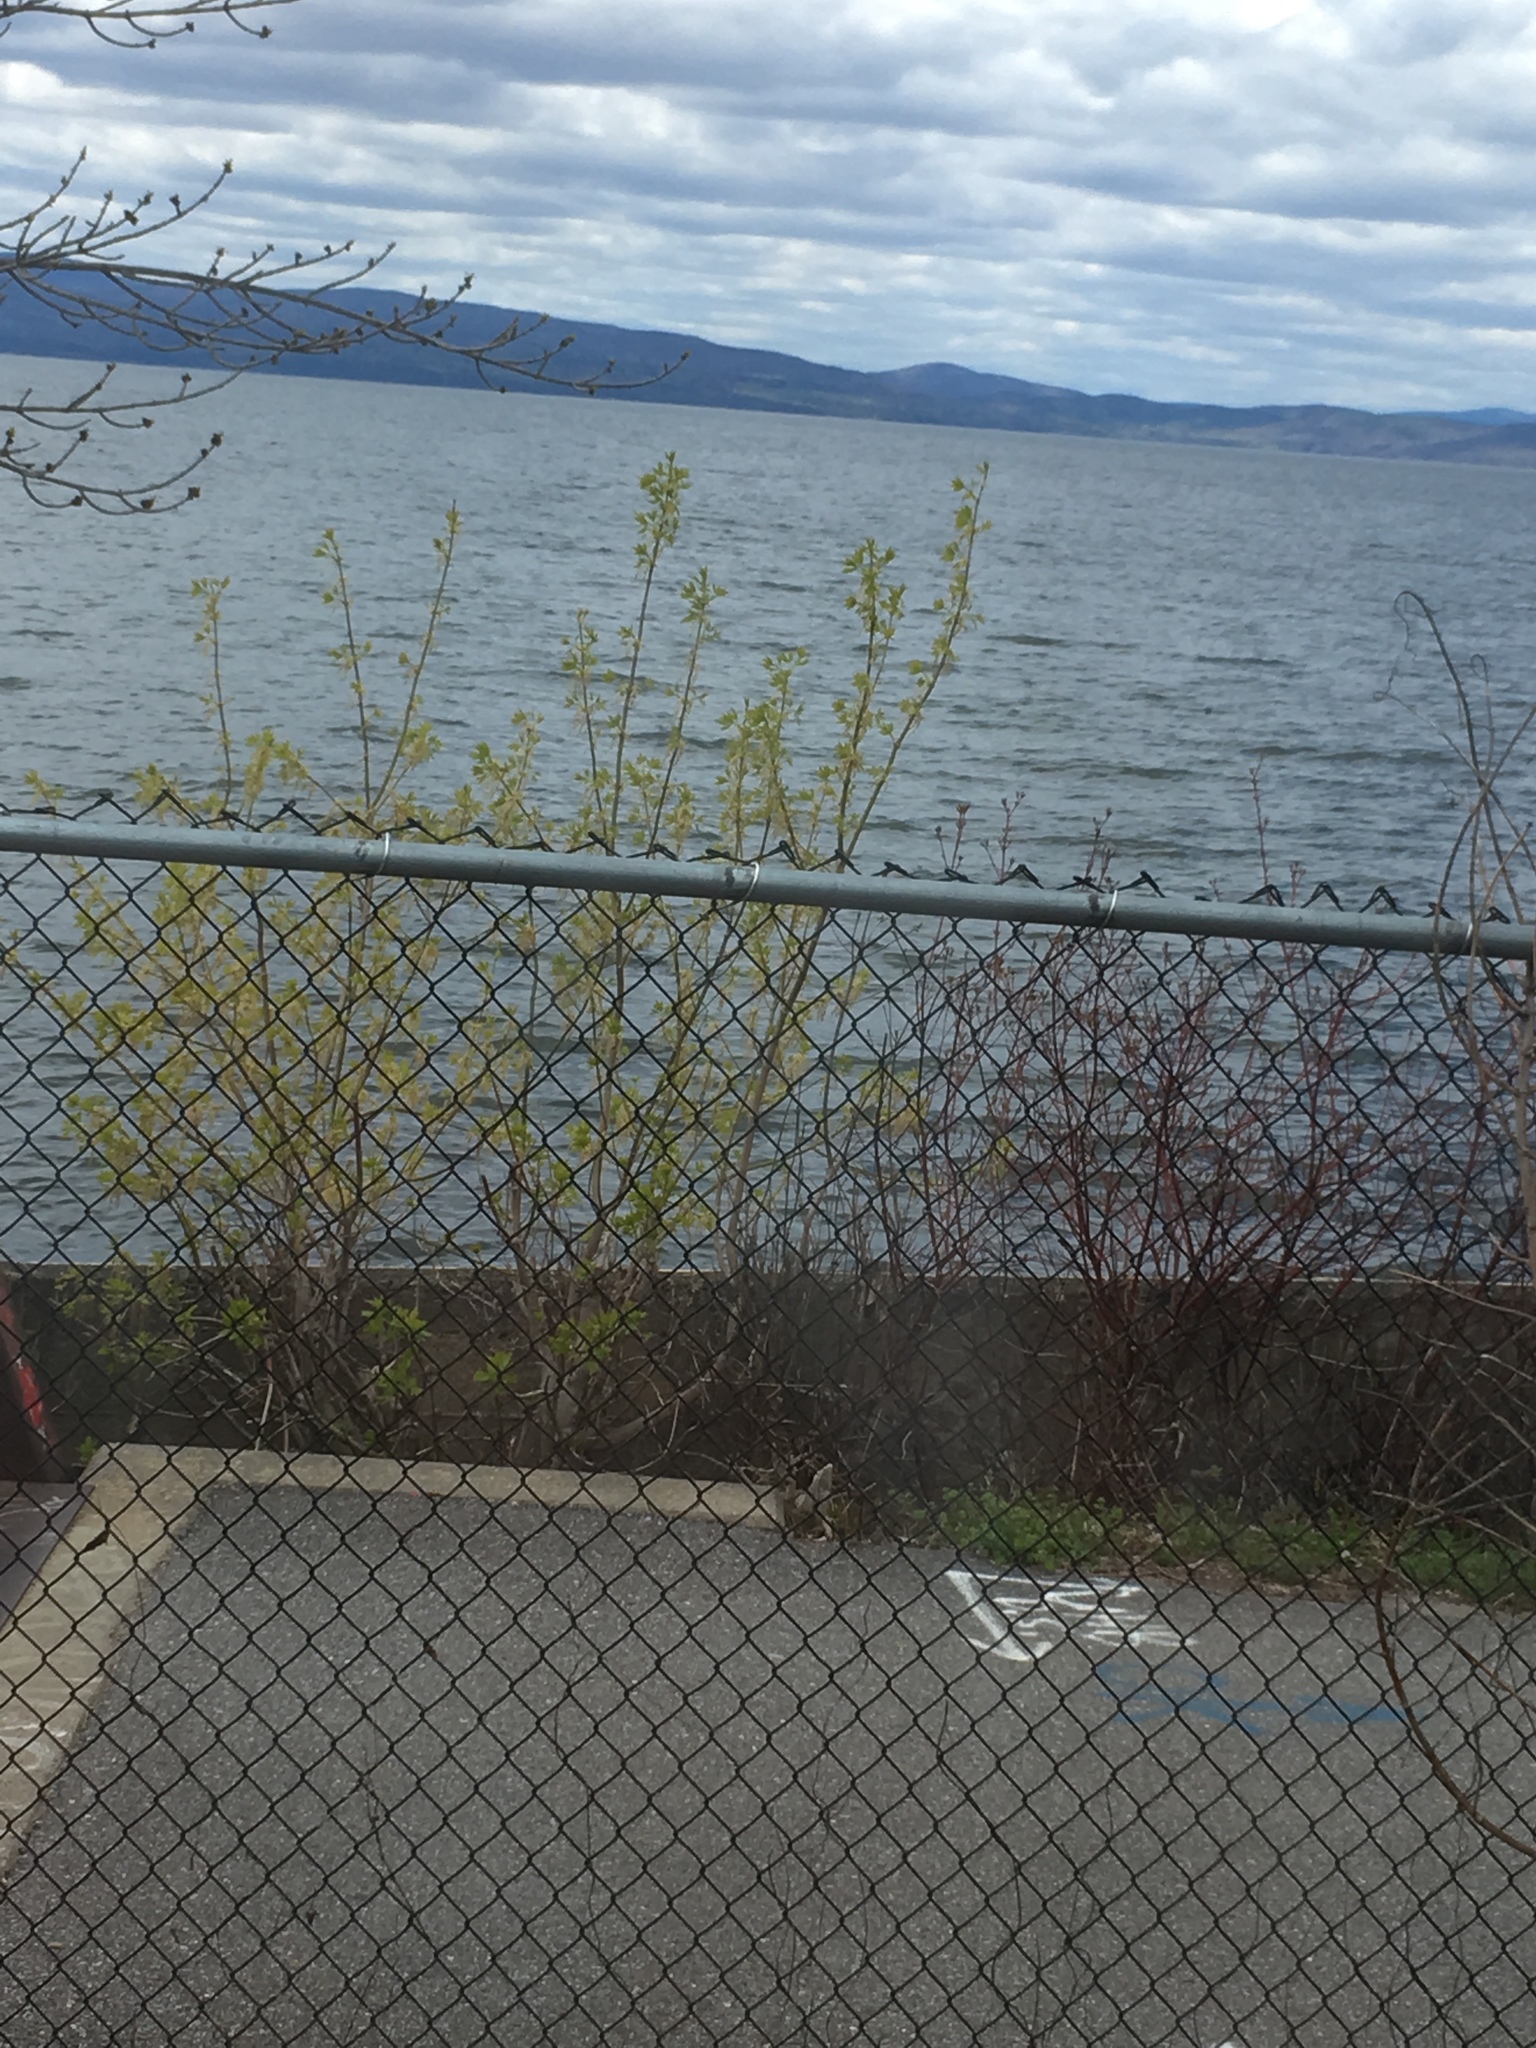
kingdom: Plantae
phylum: Tracheophyta
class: Magnoliopsida
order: Sapindales
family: Sapindaceae
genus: Acer
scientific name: Acer negundo
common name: Ashleaf maple
